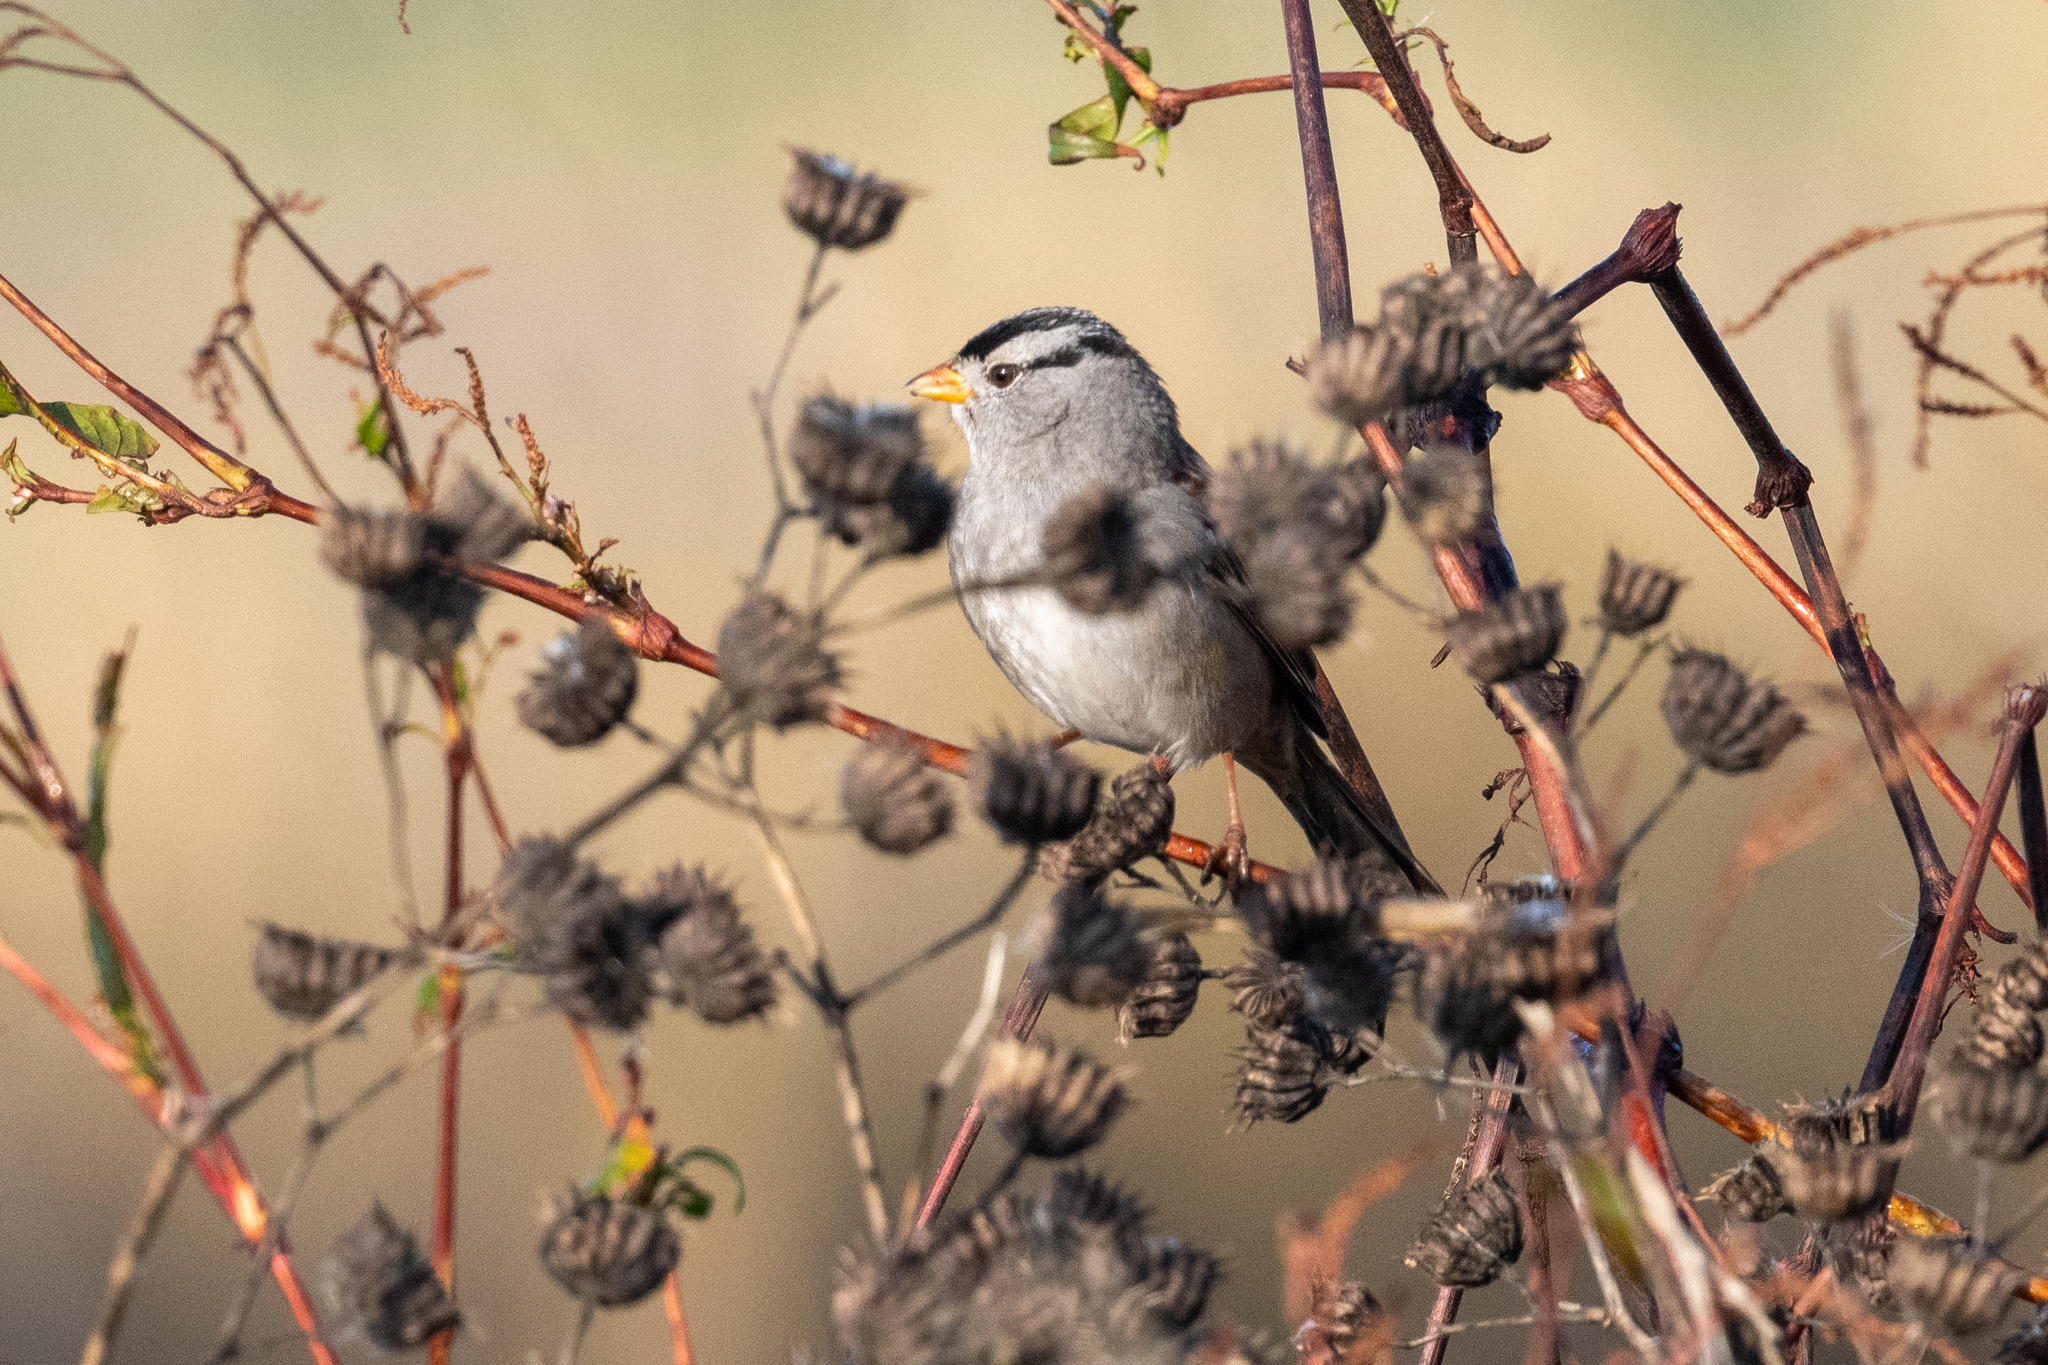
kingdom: Animalia
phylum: Chordata
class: Aves
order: Passeriformes
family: Passerellidae
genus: Zonotrichia
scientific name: Zonotrichia leucophrys
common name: White-crowned sparrow
